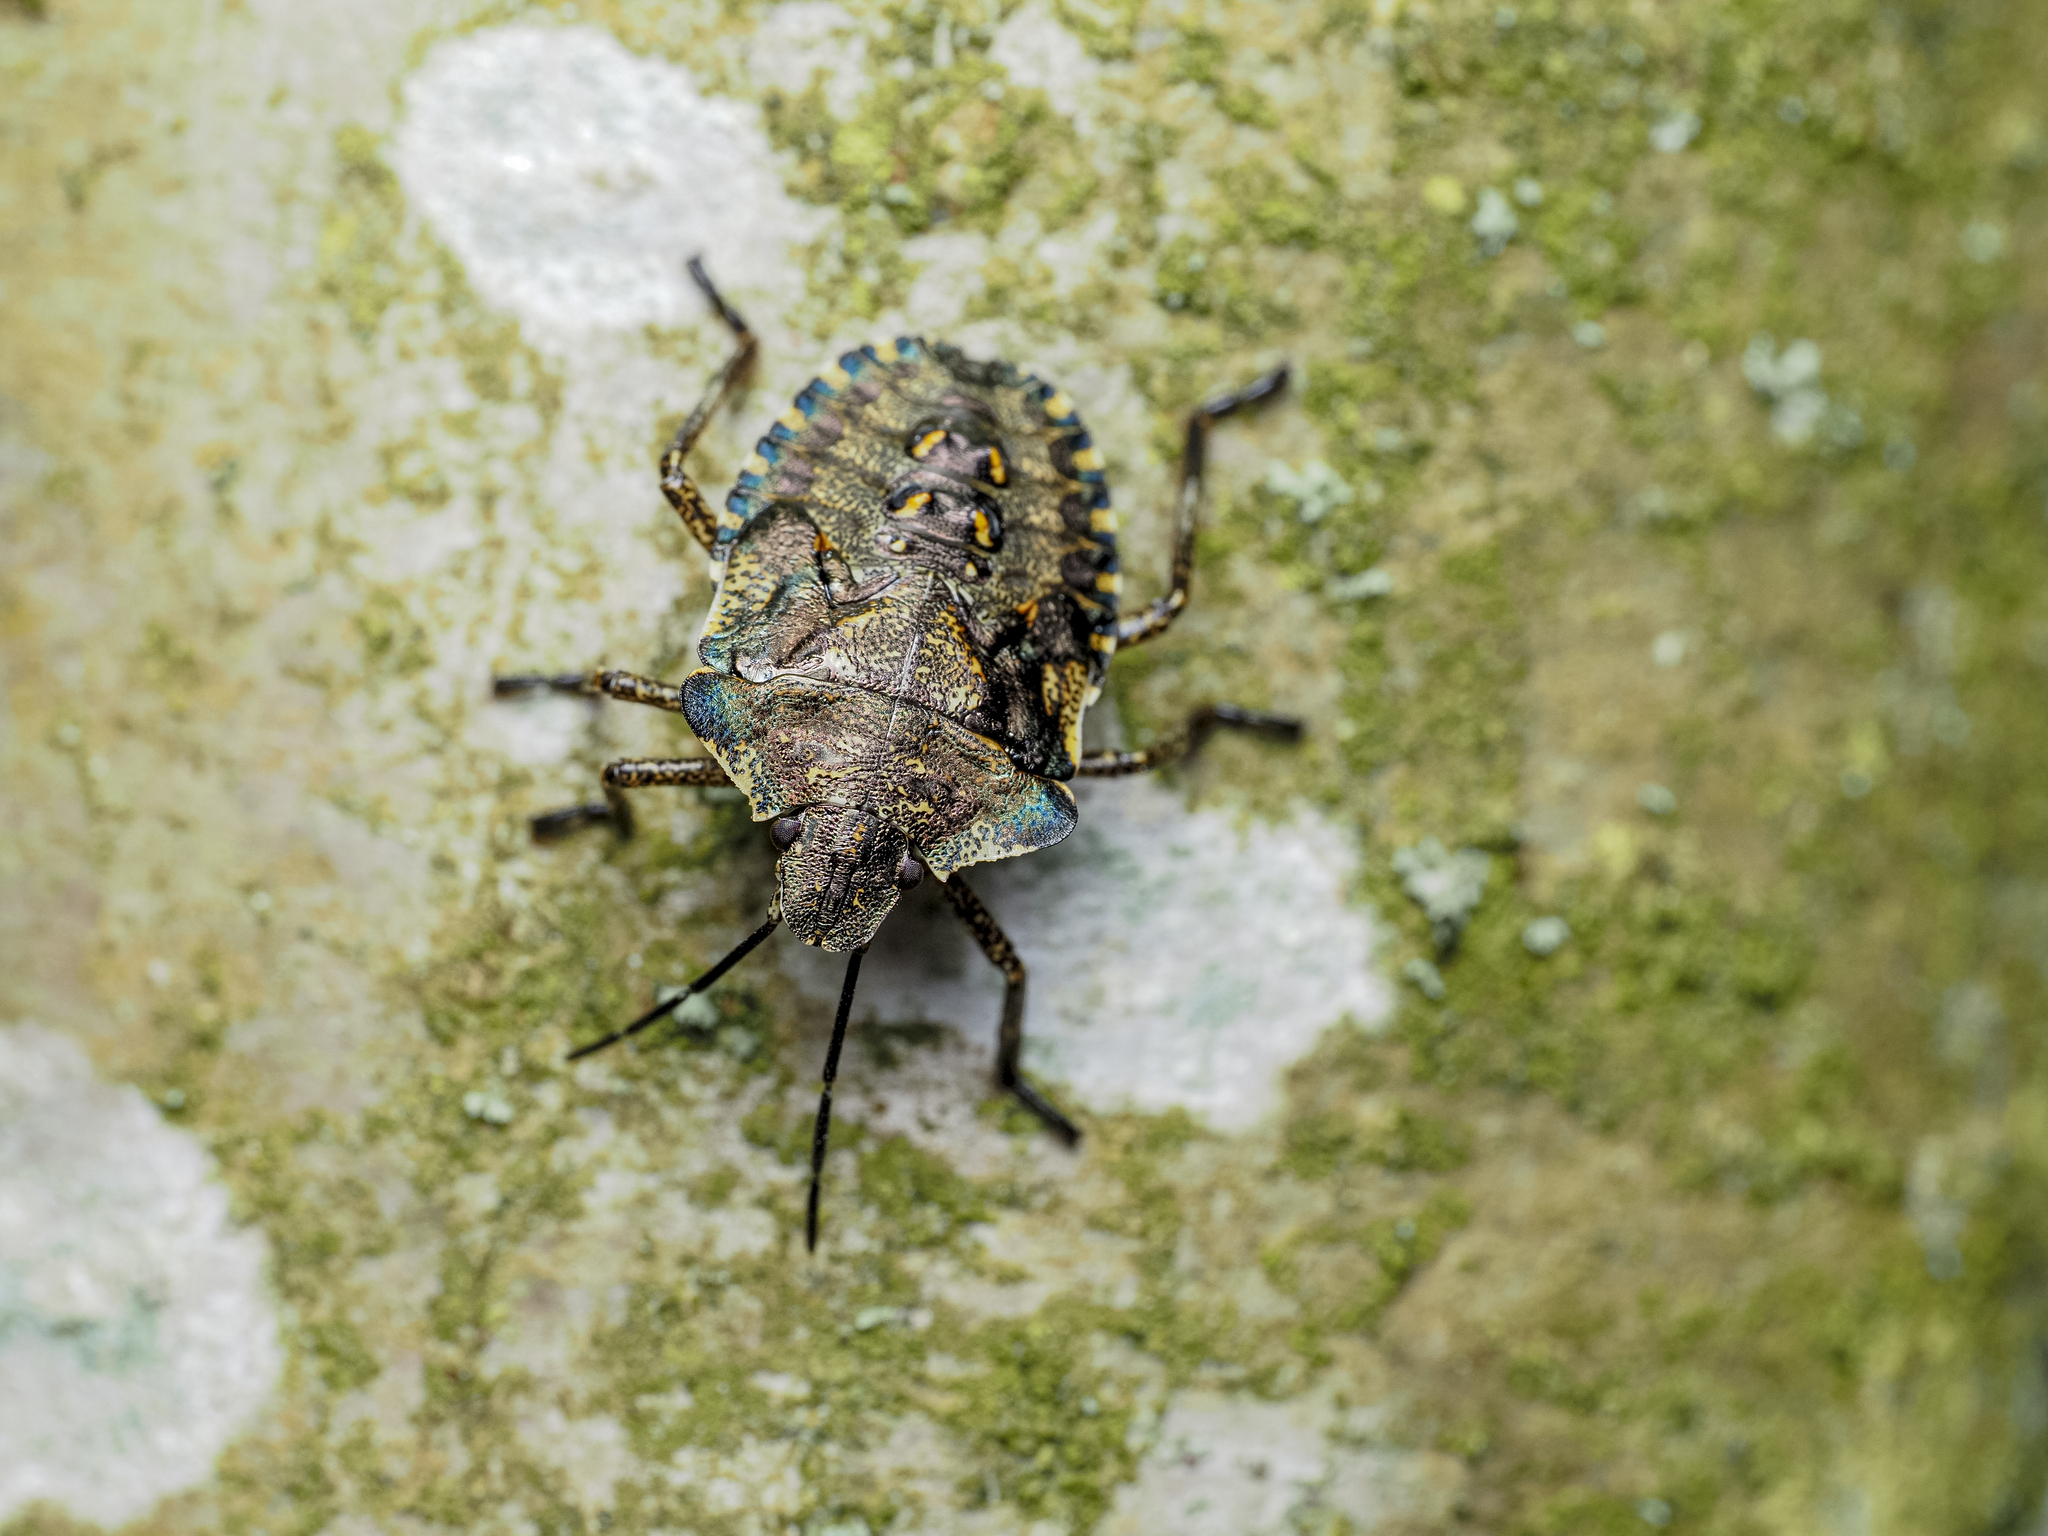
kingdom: Animalia
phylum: Arthropoda
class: Insecta
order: Hemiptera
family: Pentatomidae
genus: Pentatoma
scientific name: Pentatoma rufipes
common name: Forest bug
